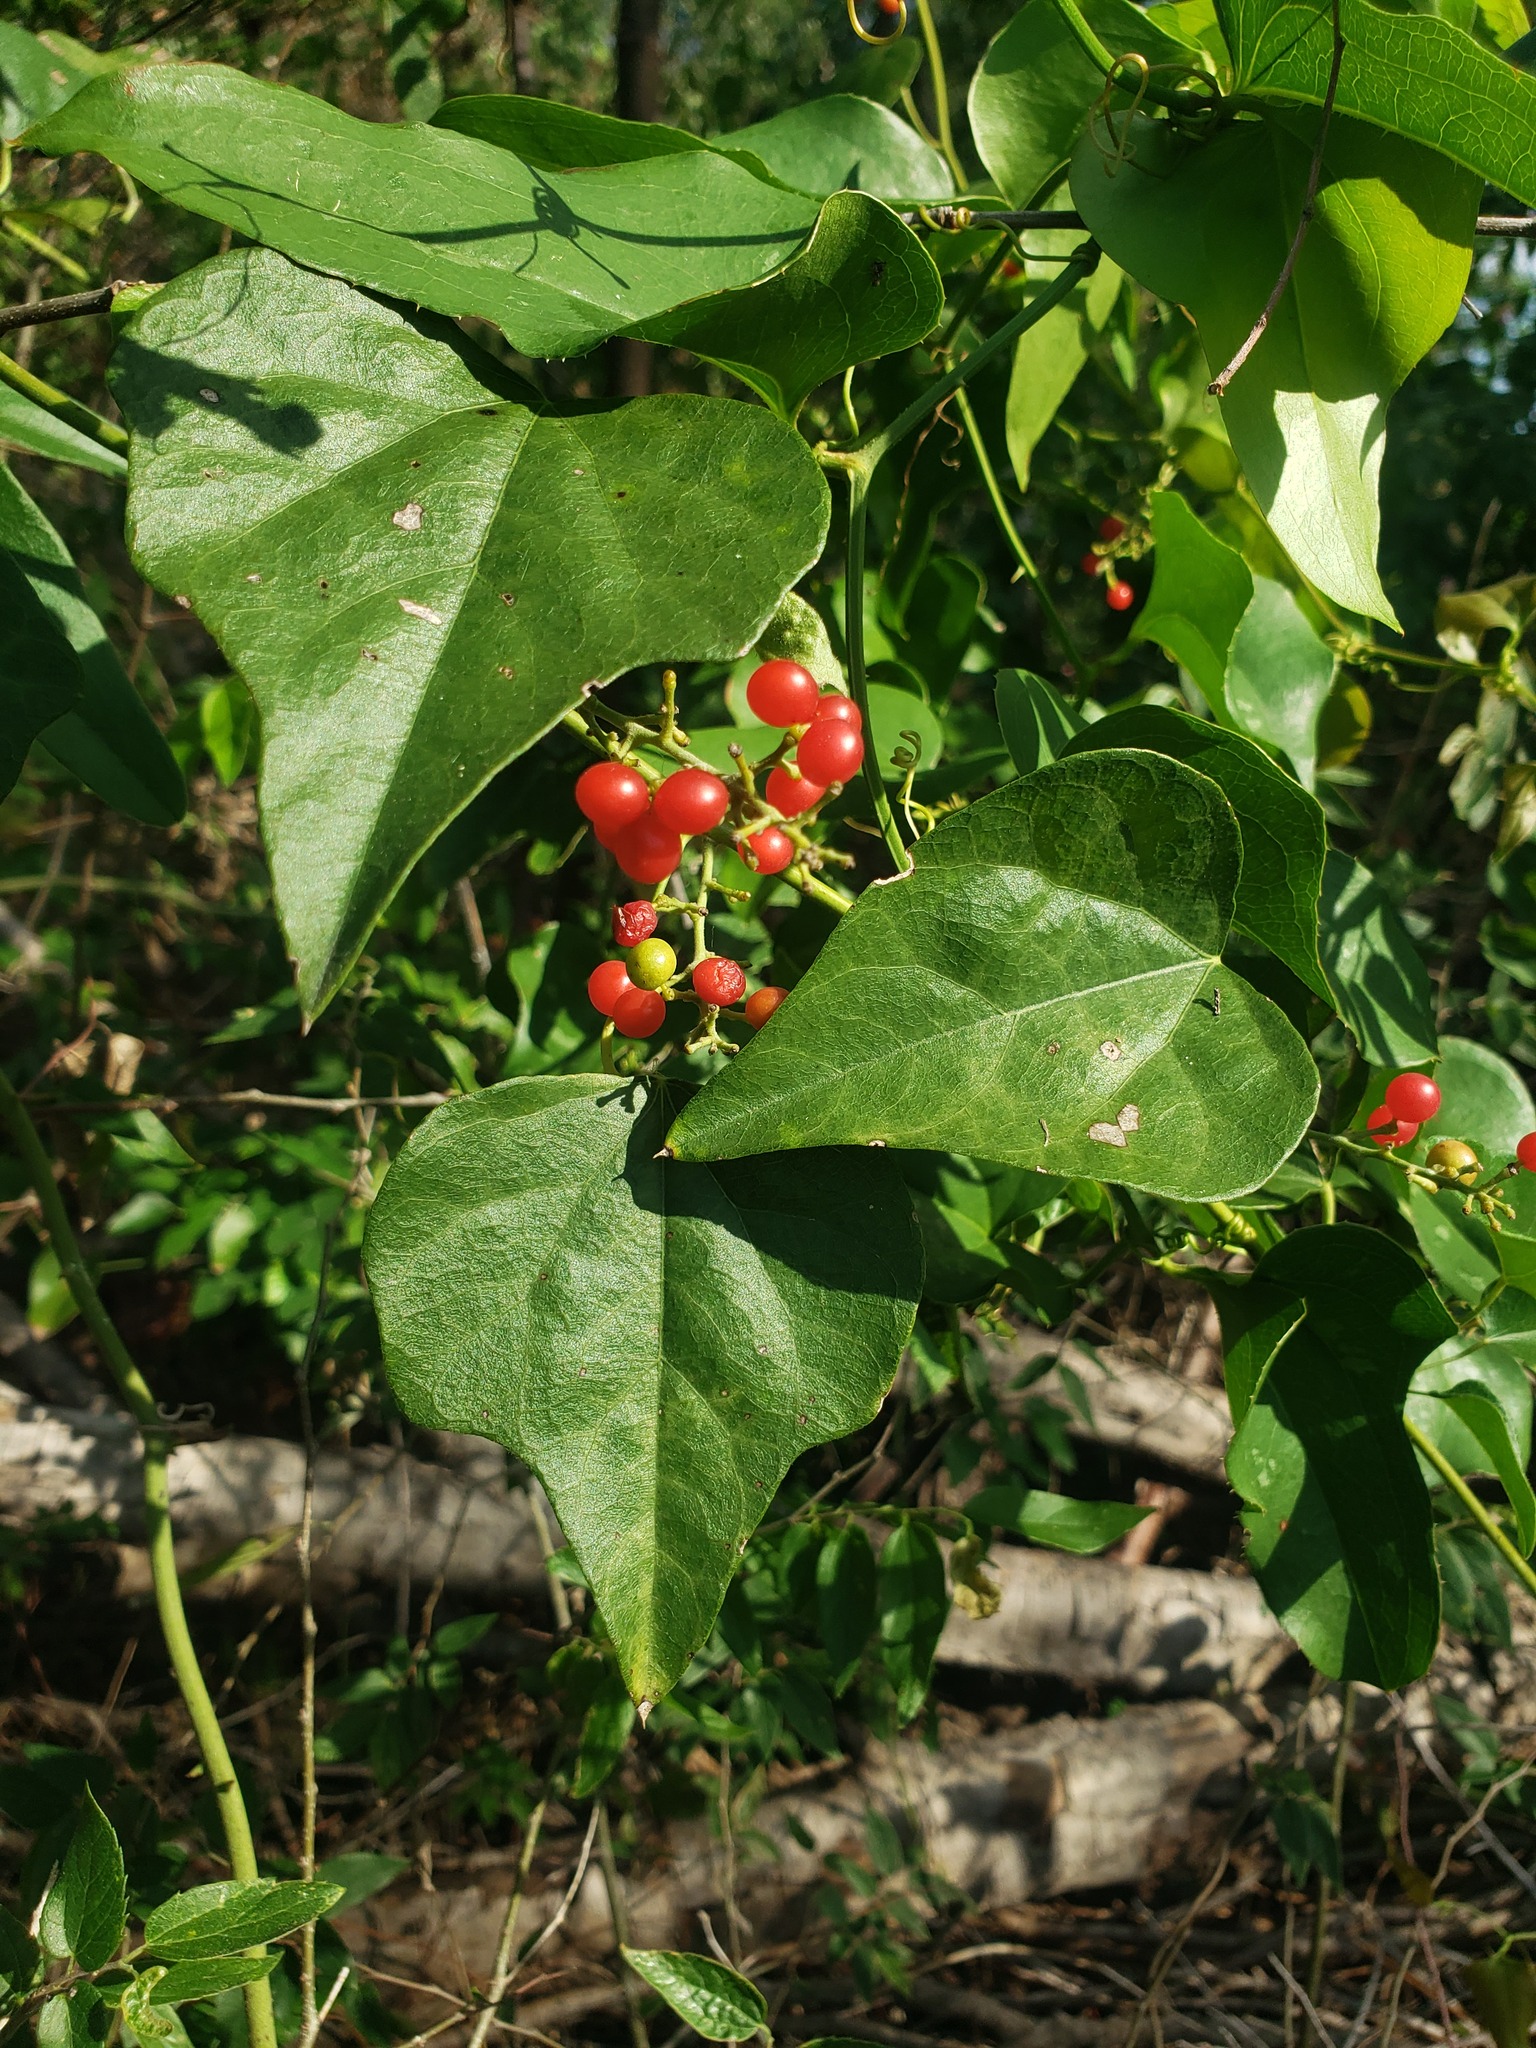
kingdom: Plantae
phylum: Tracheophyta
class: Magnoliopsida
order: Ranunculales
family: Menispermaceae
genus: Cocculus
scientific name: Cocculus carolinus
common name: Carolina moonseed
